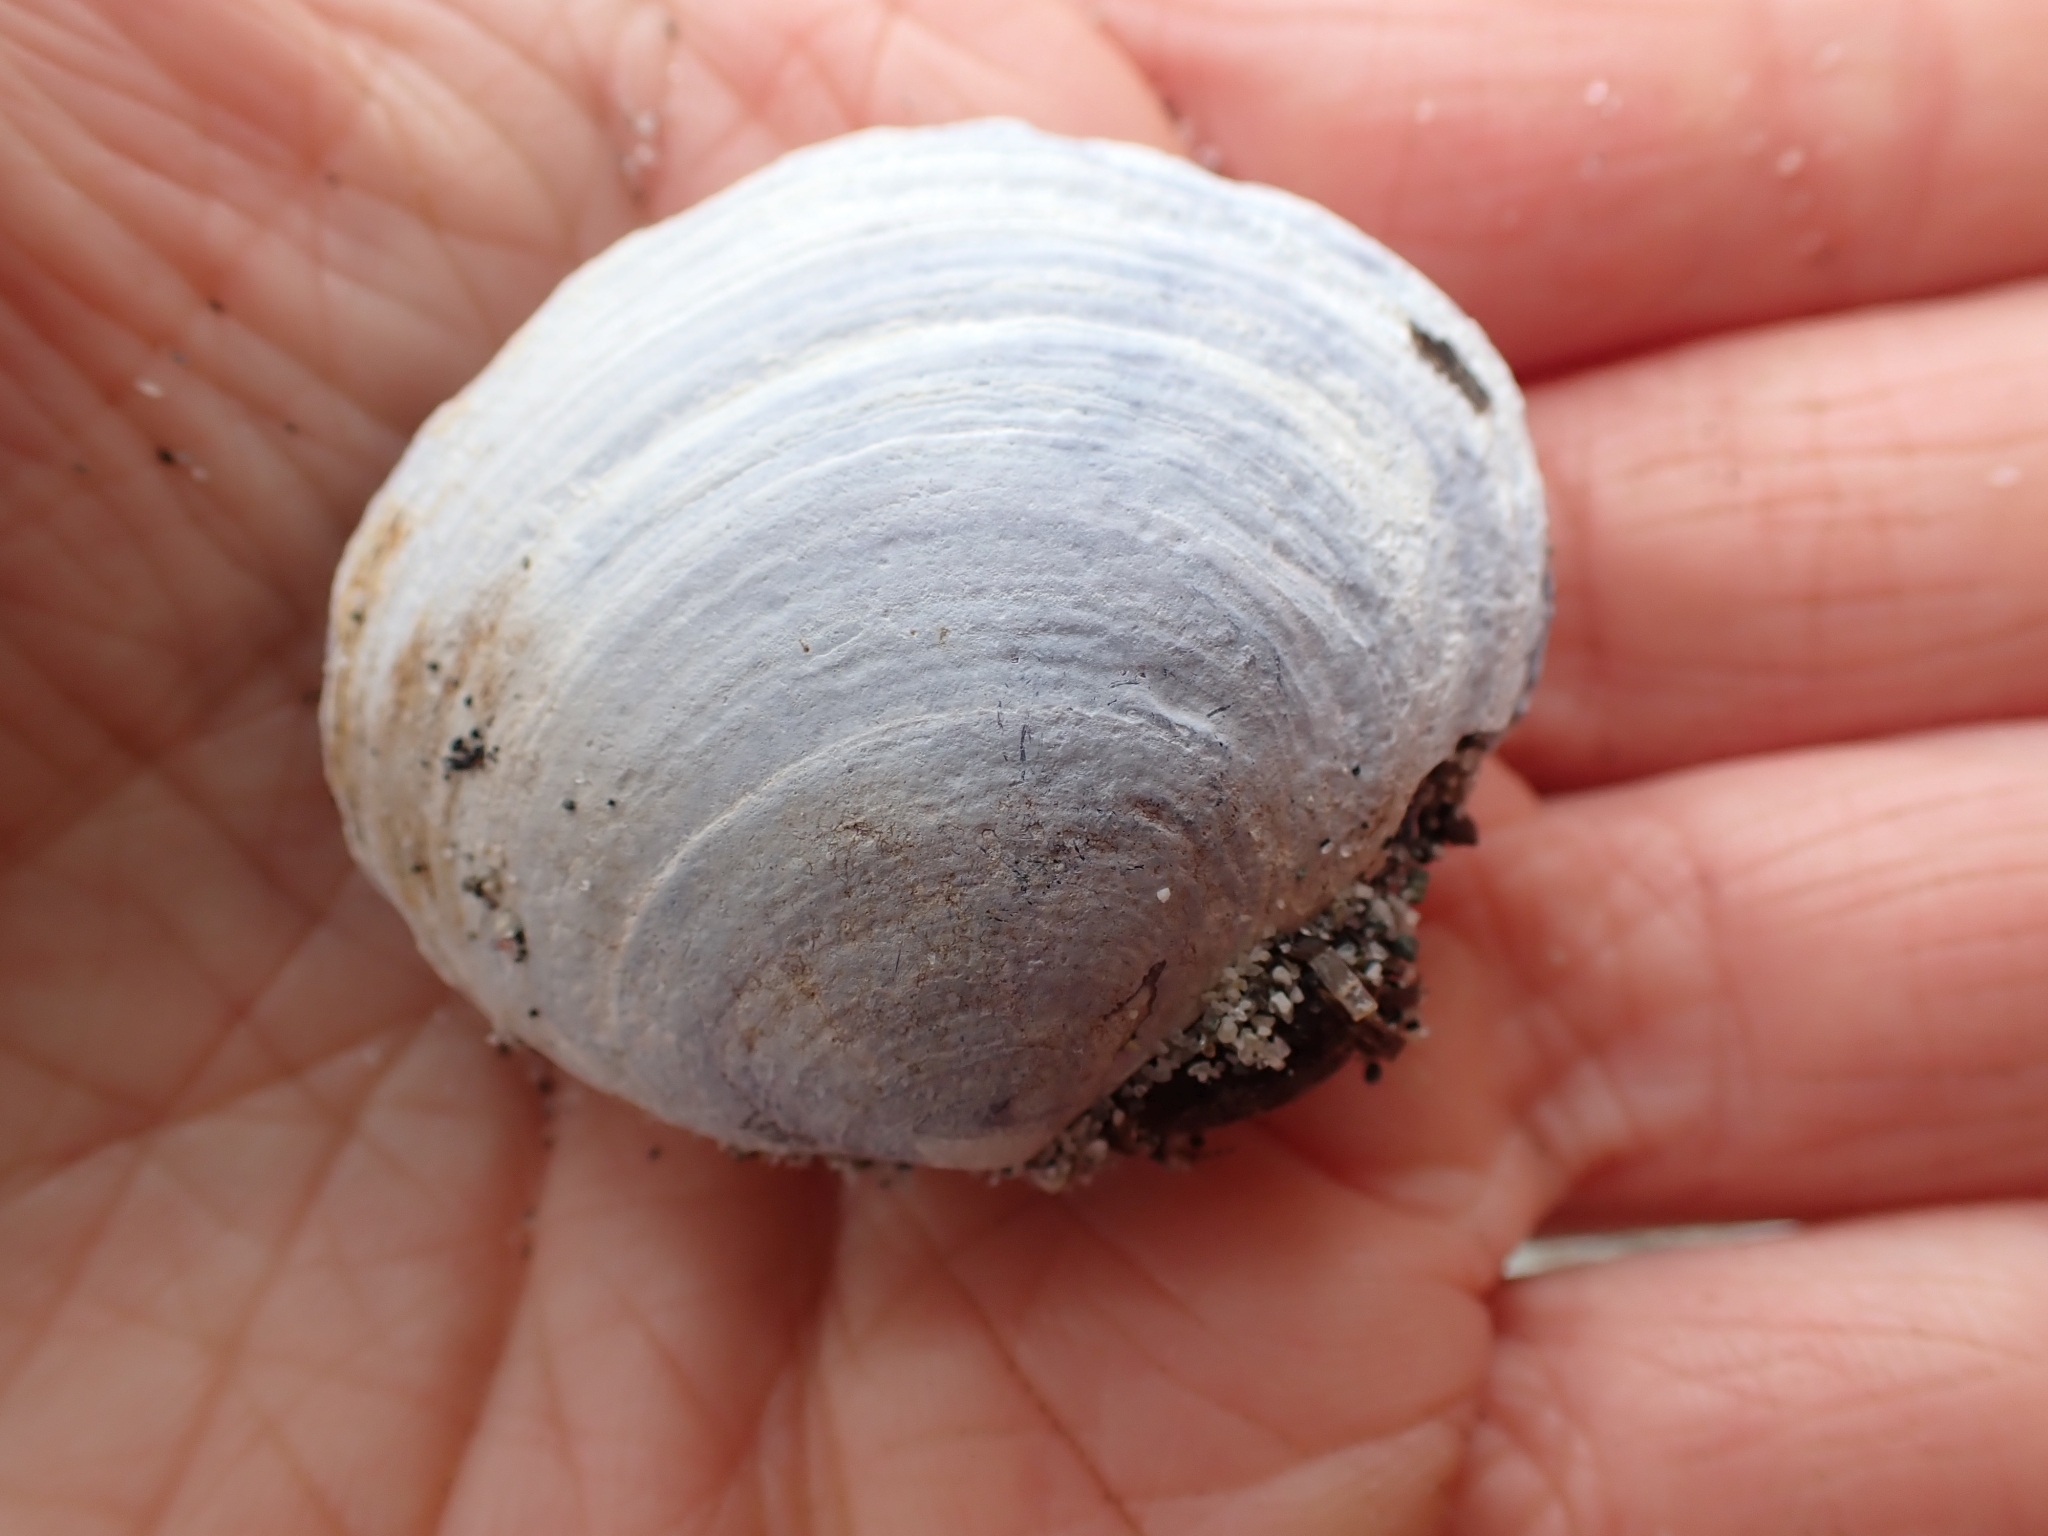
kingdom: Animalia
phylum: Mollusca
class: Bivalvia
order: Cardiida
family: Psammobiidae
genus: Nuttallia
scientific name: Nuttallia obscurata
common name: Purple mahogany-clam
